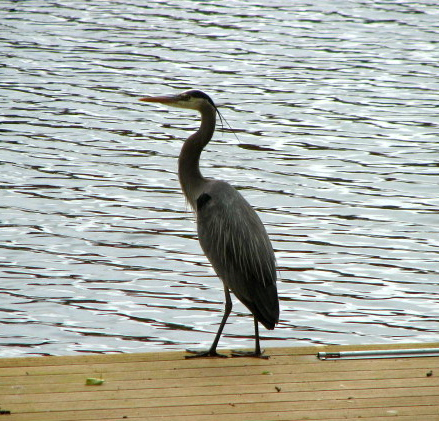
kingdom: Animalia
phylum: Chordata
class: Aves
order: Pelecaniformes
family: Ardeidae
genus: Ardea
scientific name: Ardea herodias
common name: Great blue heron
